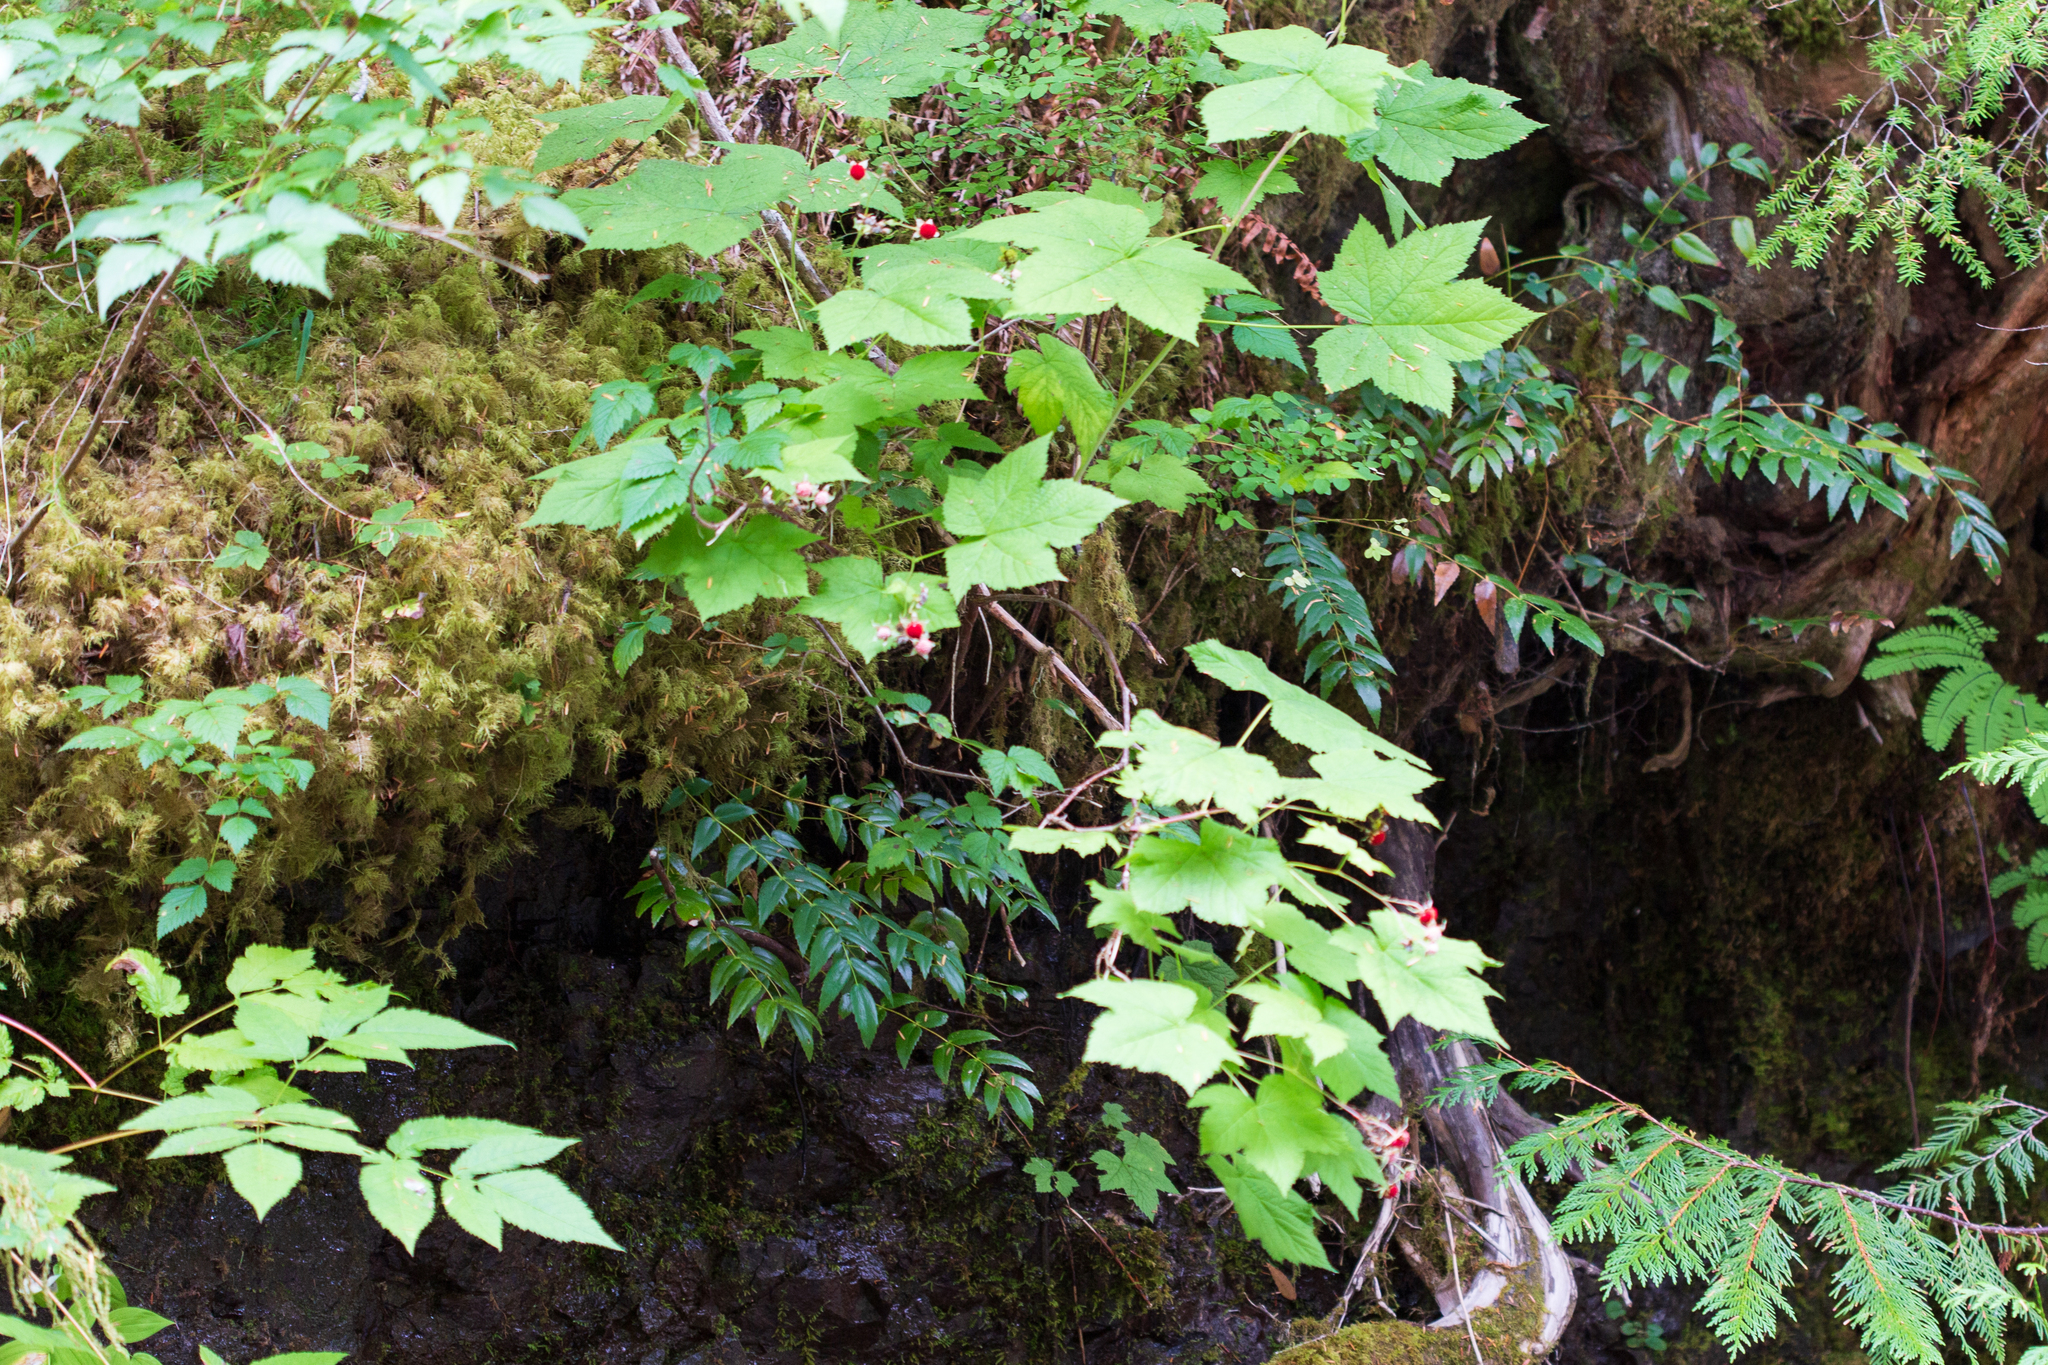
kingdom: Plantae
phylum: Tracheophyta
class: Magnoliopsida
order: Rosales
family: Rosaceae
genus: Rubus
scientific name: Rubus parviflorus
